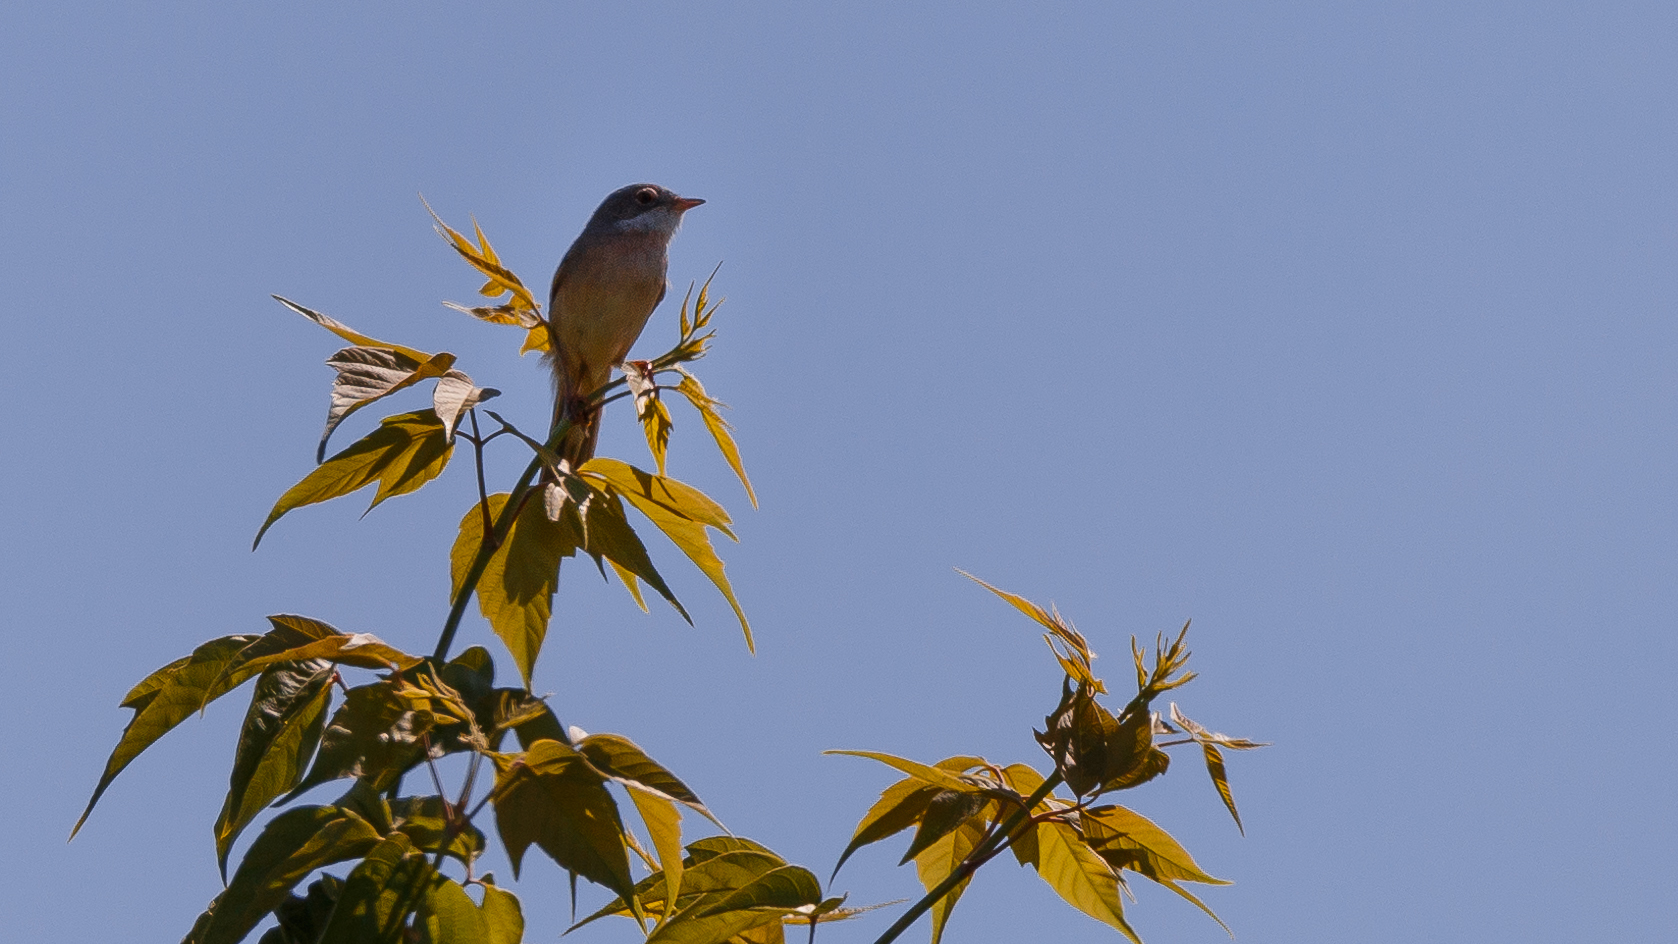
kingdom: Animalia
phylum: Chordata
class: Aves
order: Passeriformes
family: Sylviidae
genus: Sylvia
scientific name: Sylvia communis
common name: Common whitethroat
